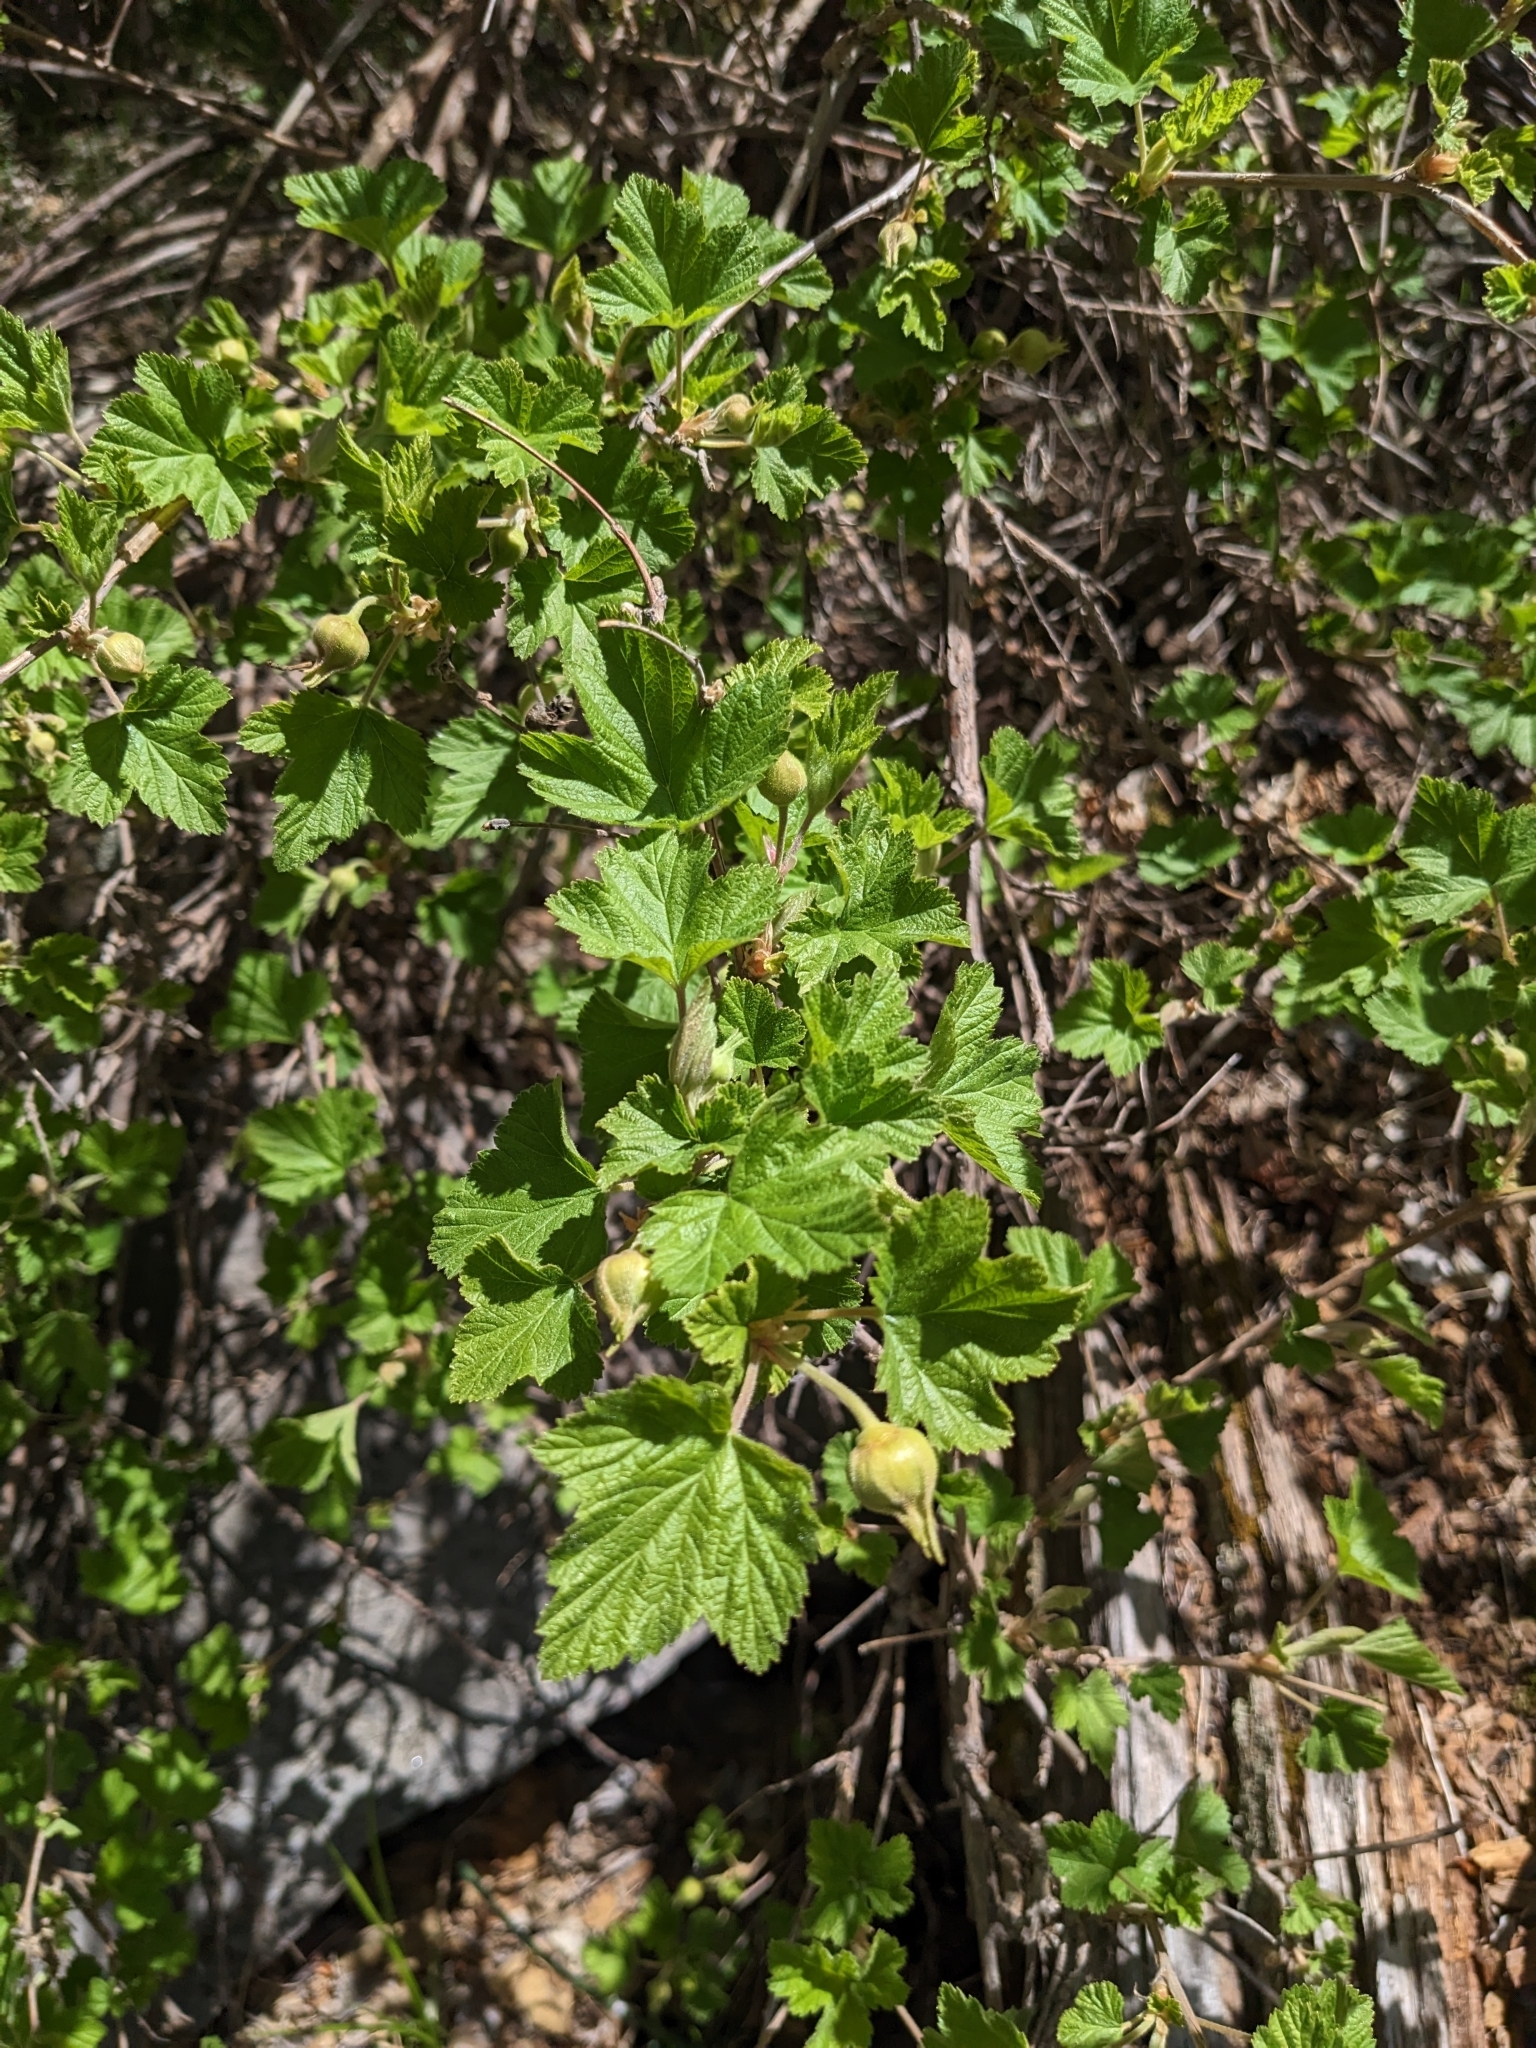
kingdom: Plantae
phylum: Tracheophyta
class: Magnoliopsida
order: Rosales
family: Rosaceae
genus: Rubus
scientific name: Rubus neomexicanus
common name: New mexico raspberry
